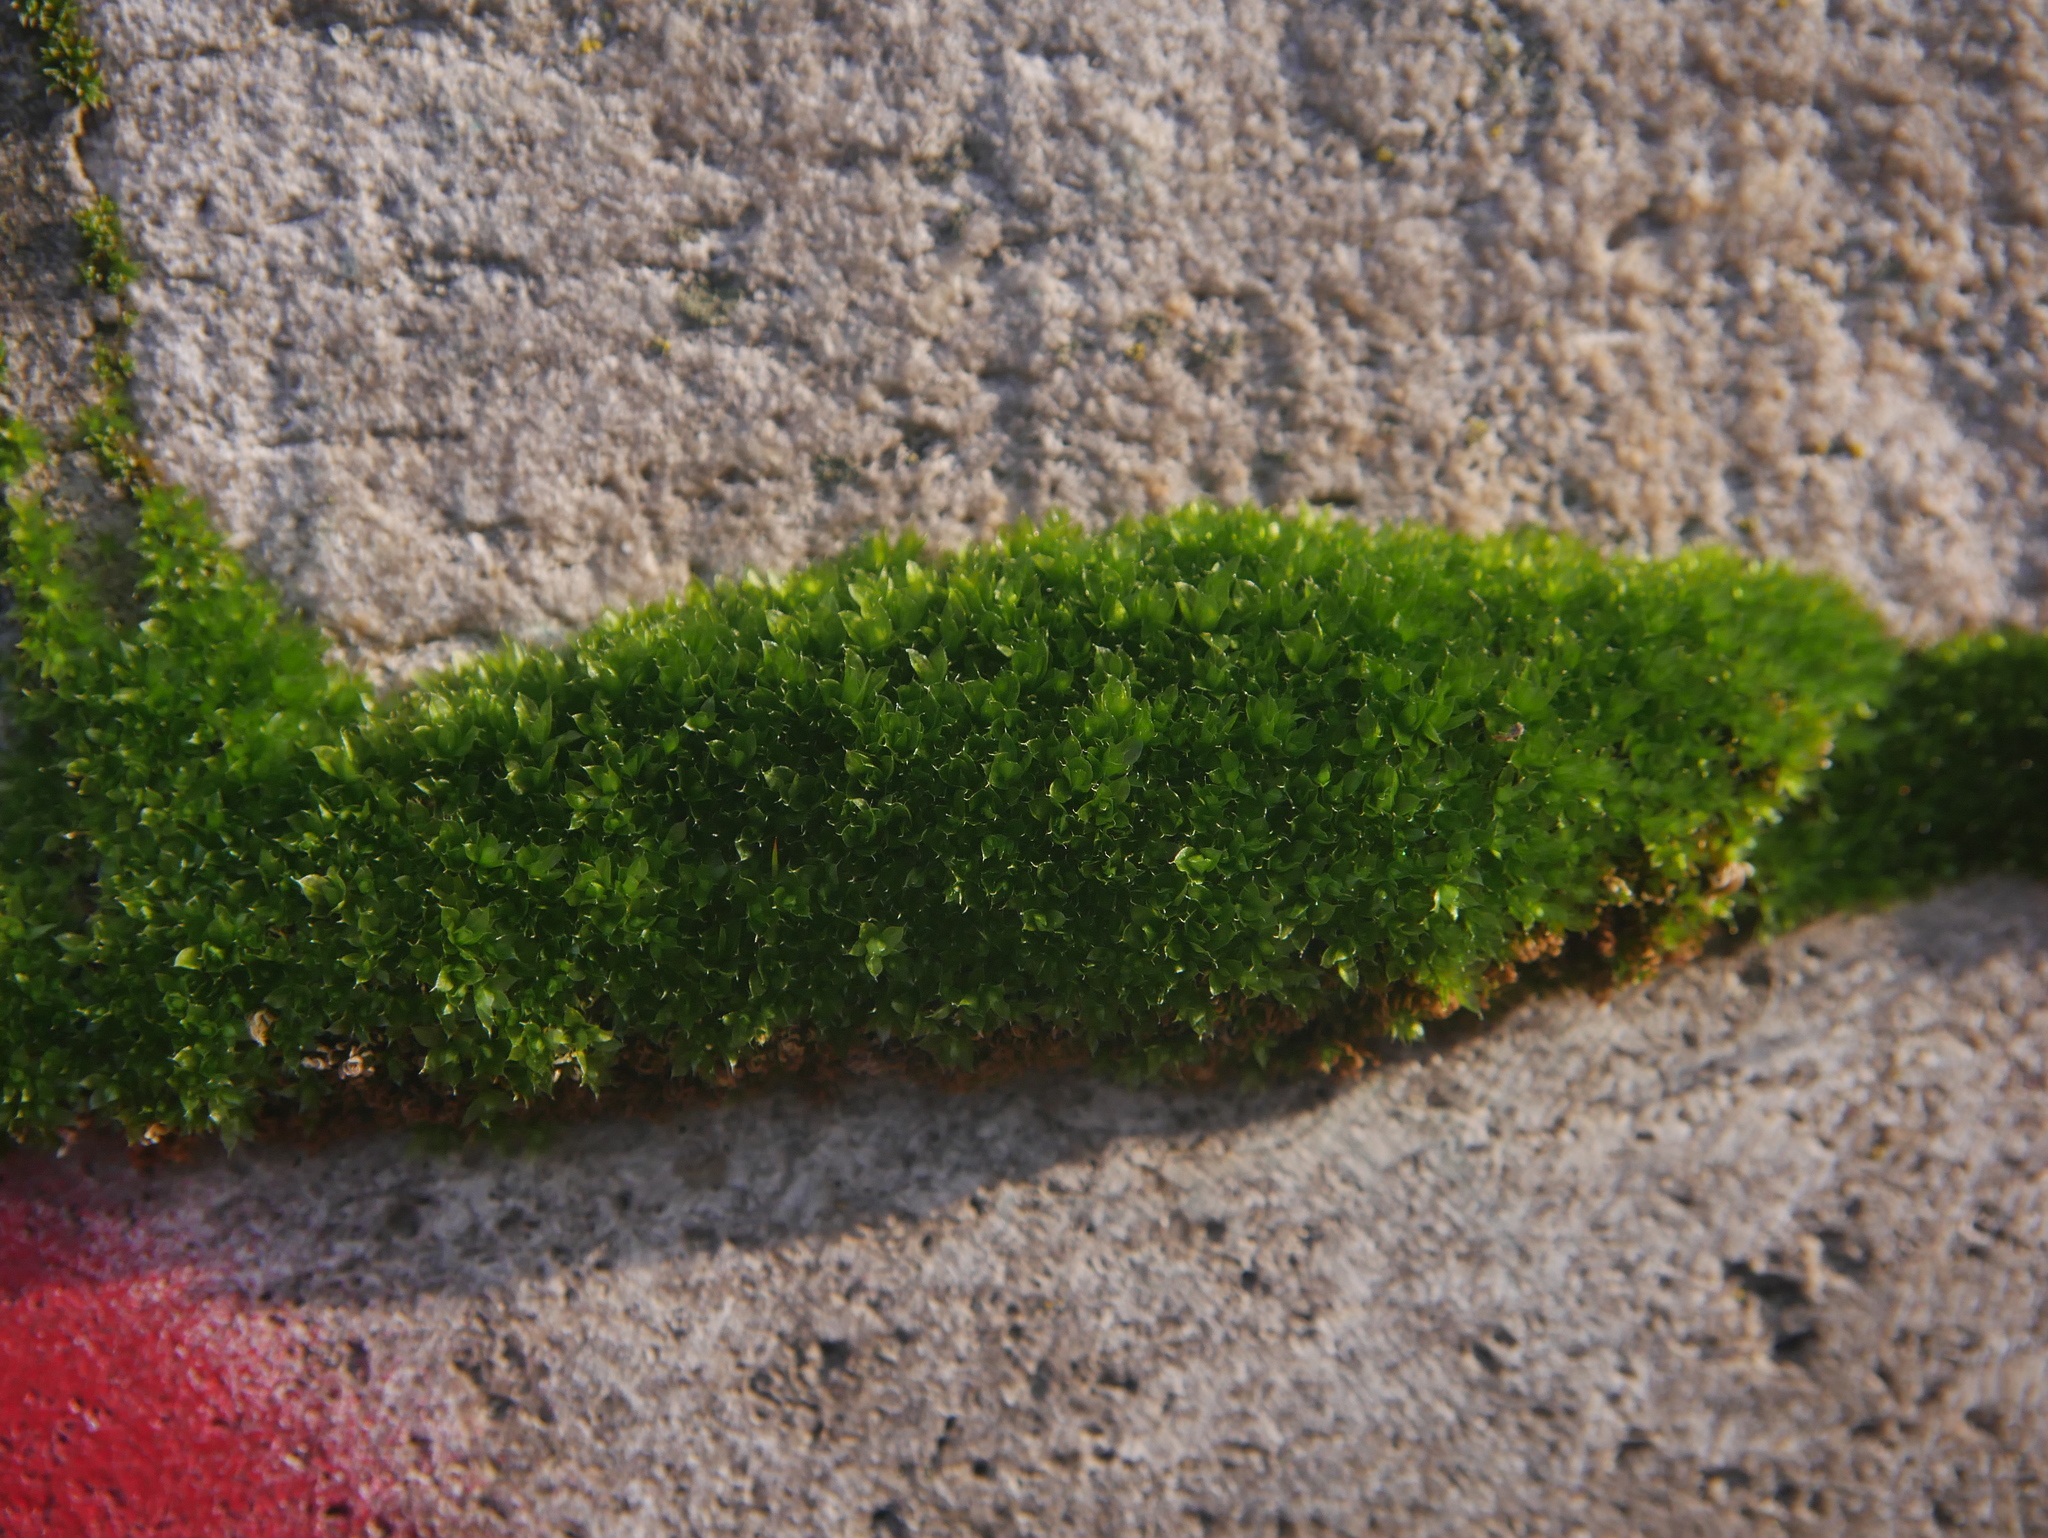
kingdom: Plantae
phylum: Bryophyta
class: Bryopsida
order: Bryales
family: Bryaceae
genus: Rosulabryum
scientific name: Rosulabryum capillare
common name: Capillary thread-moss
